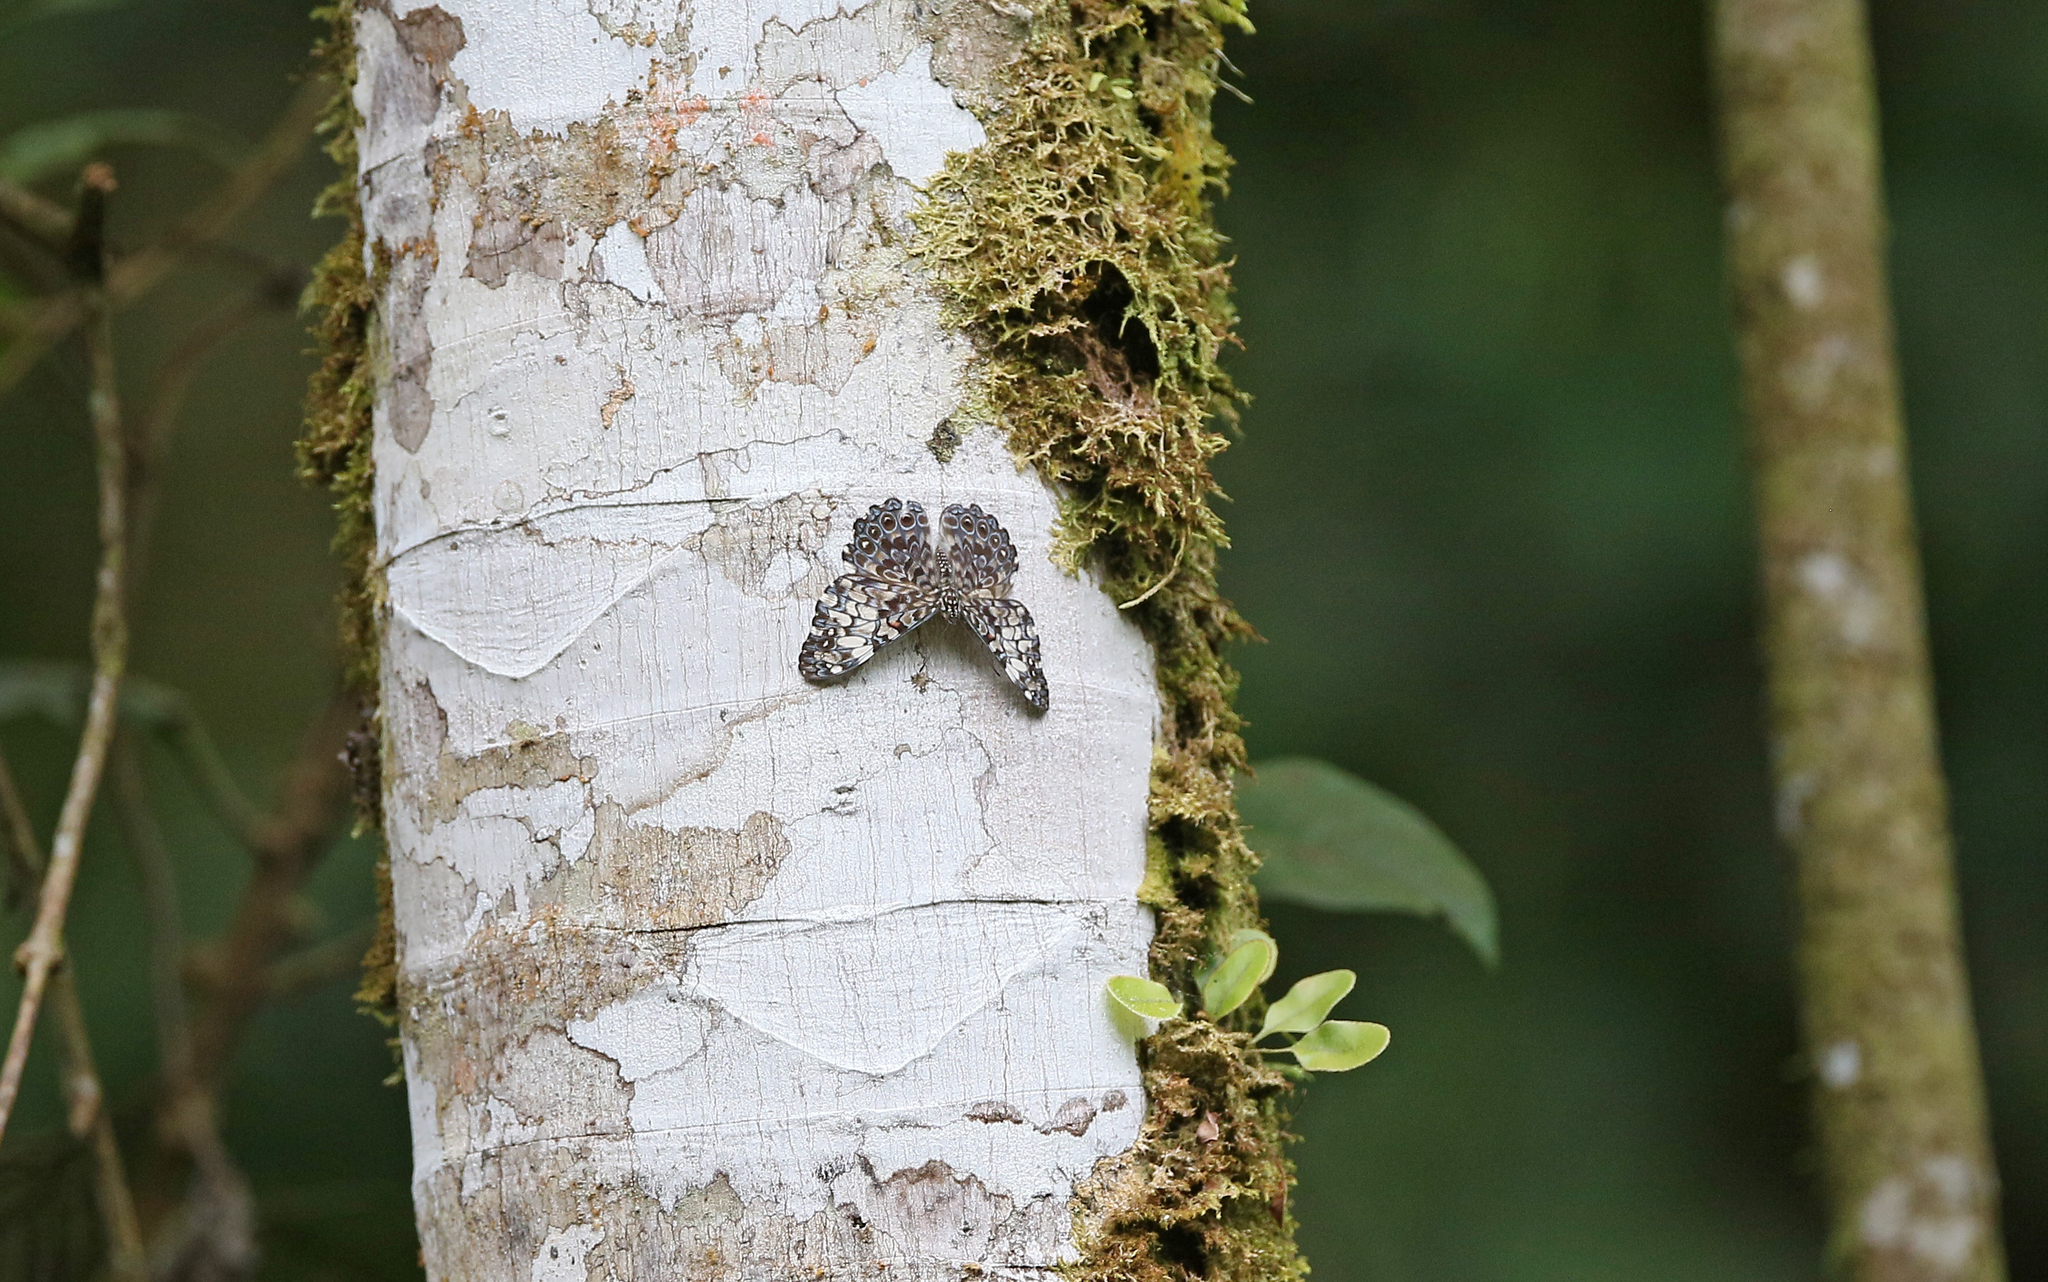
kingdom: Animalia
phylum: Arthropoda
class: Insecta
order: Lepidoptera
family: Nymphalidae
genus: Hamadryas
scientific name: Hamadryas fornax
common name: Orange cracker
